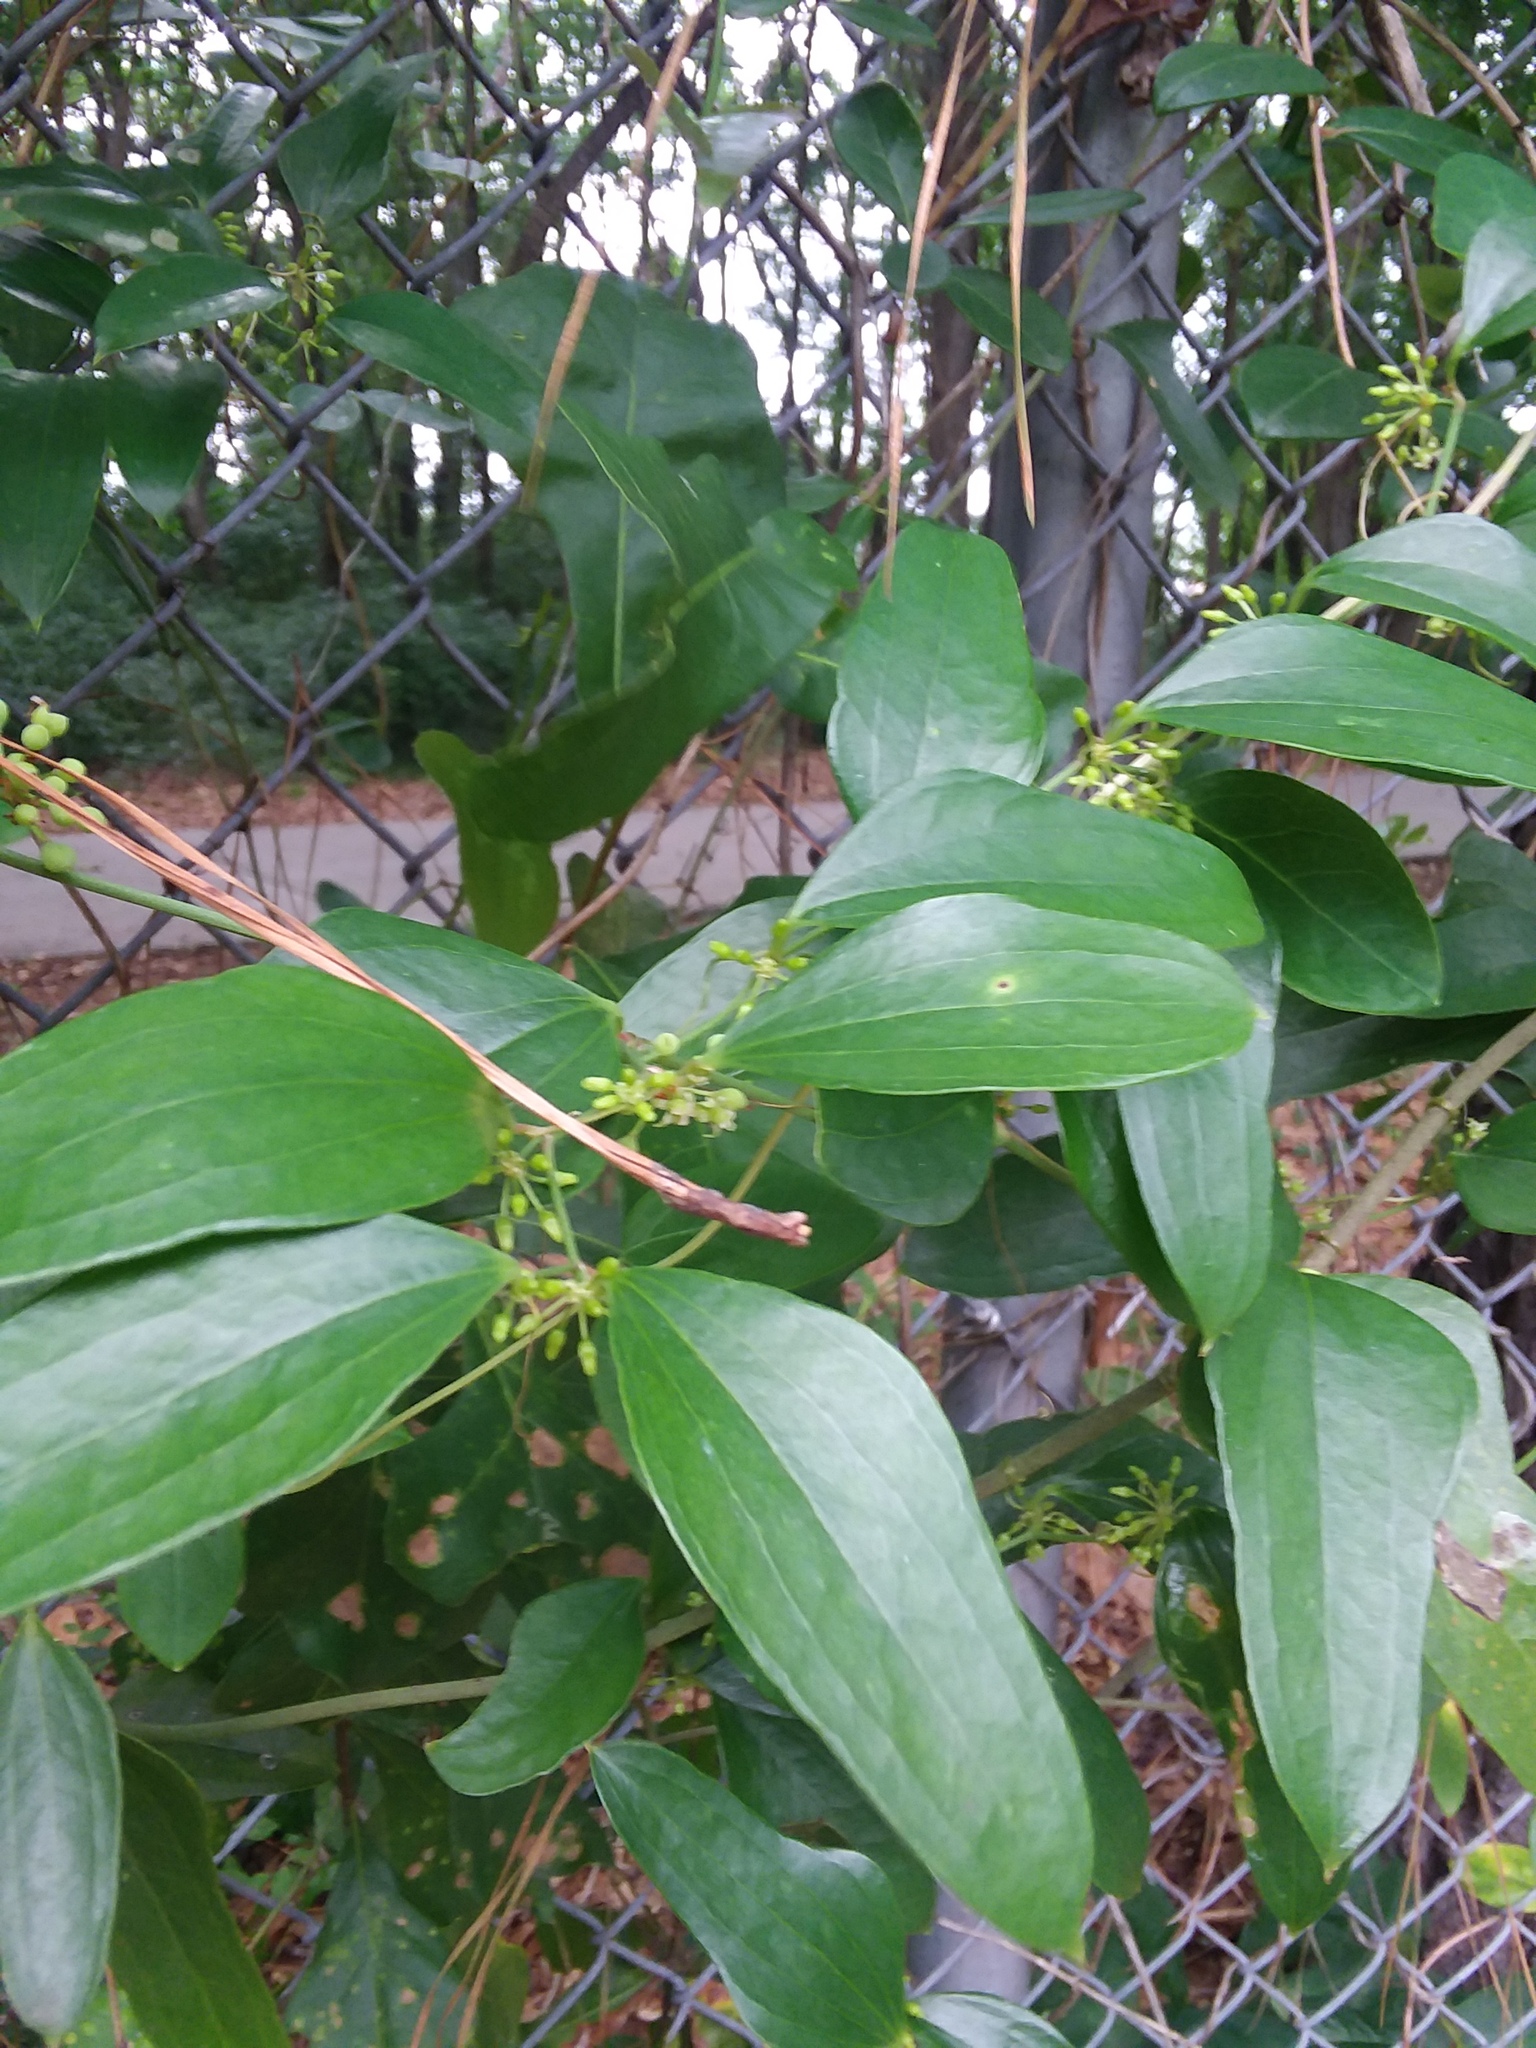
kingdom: Plantae
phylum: Tracheophyta
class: Liliopsida
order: Liliales
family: Smilacaceae
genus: Smilax
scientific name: Smilax auriculata
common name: Wild bamboo
